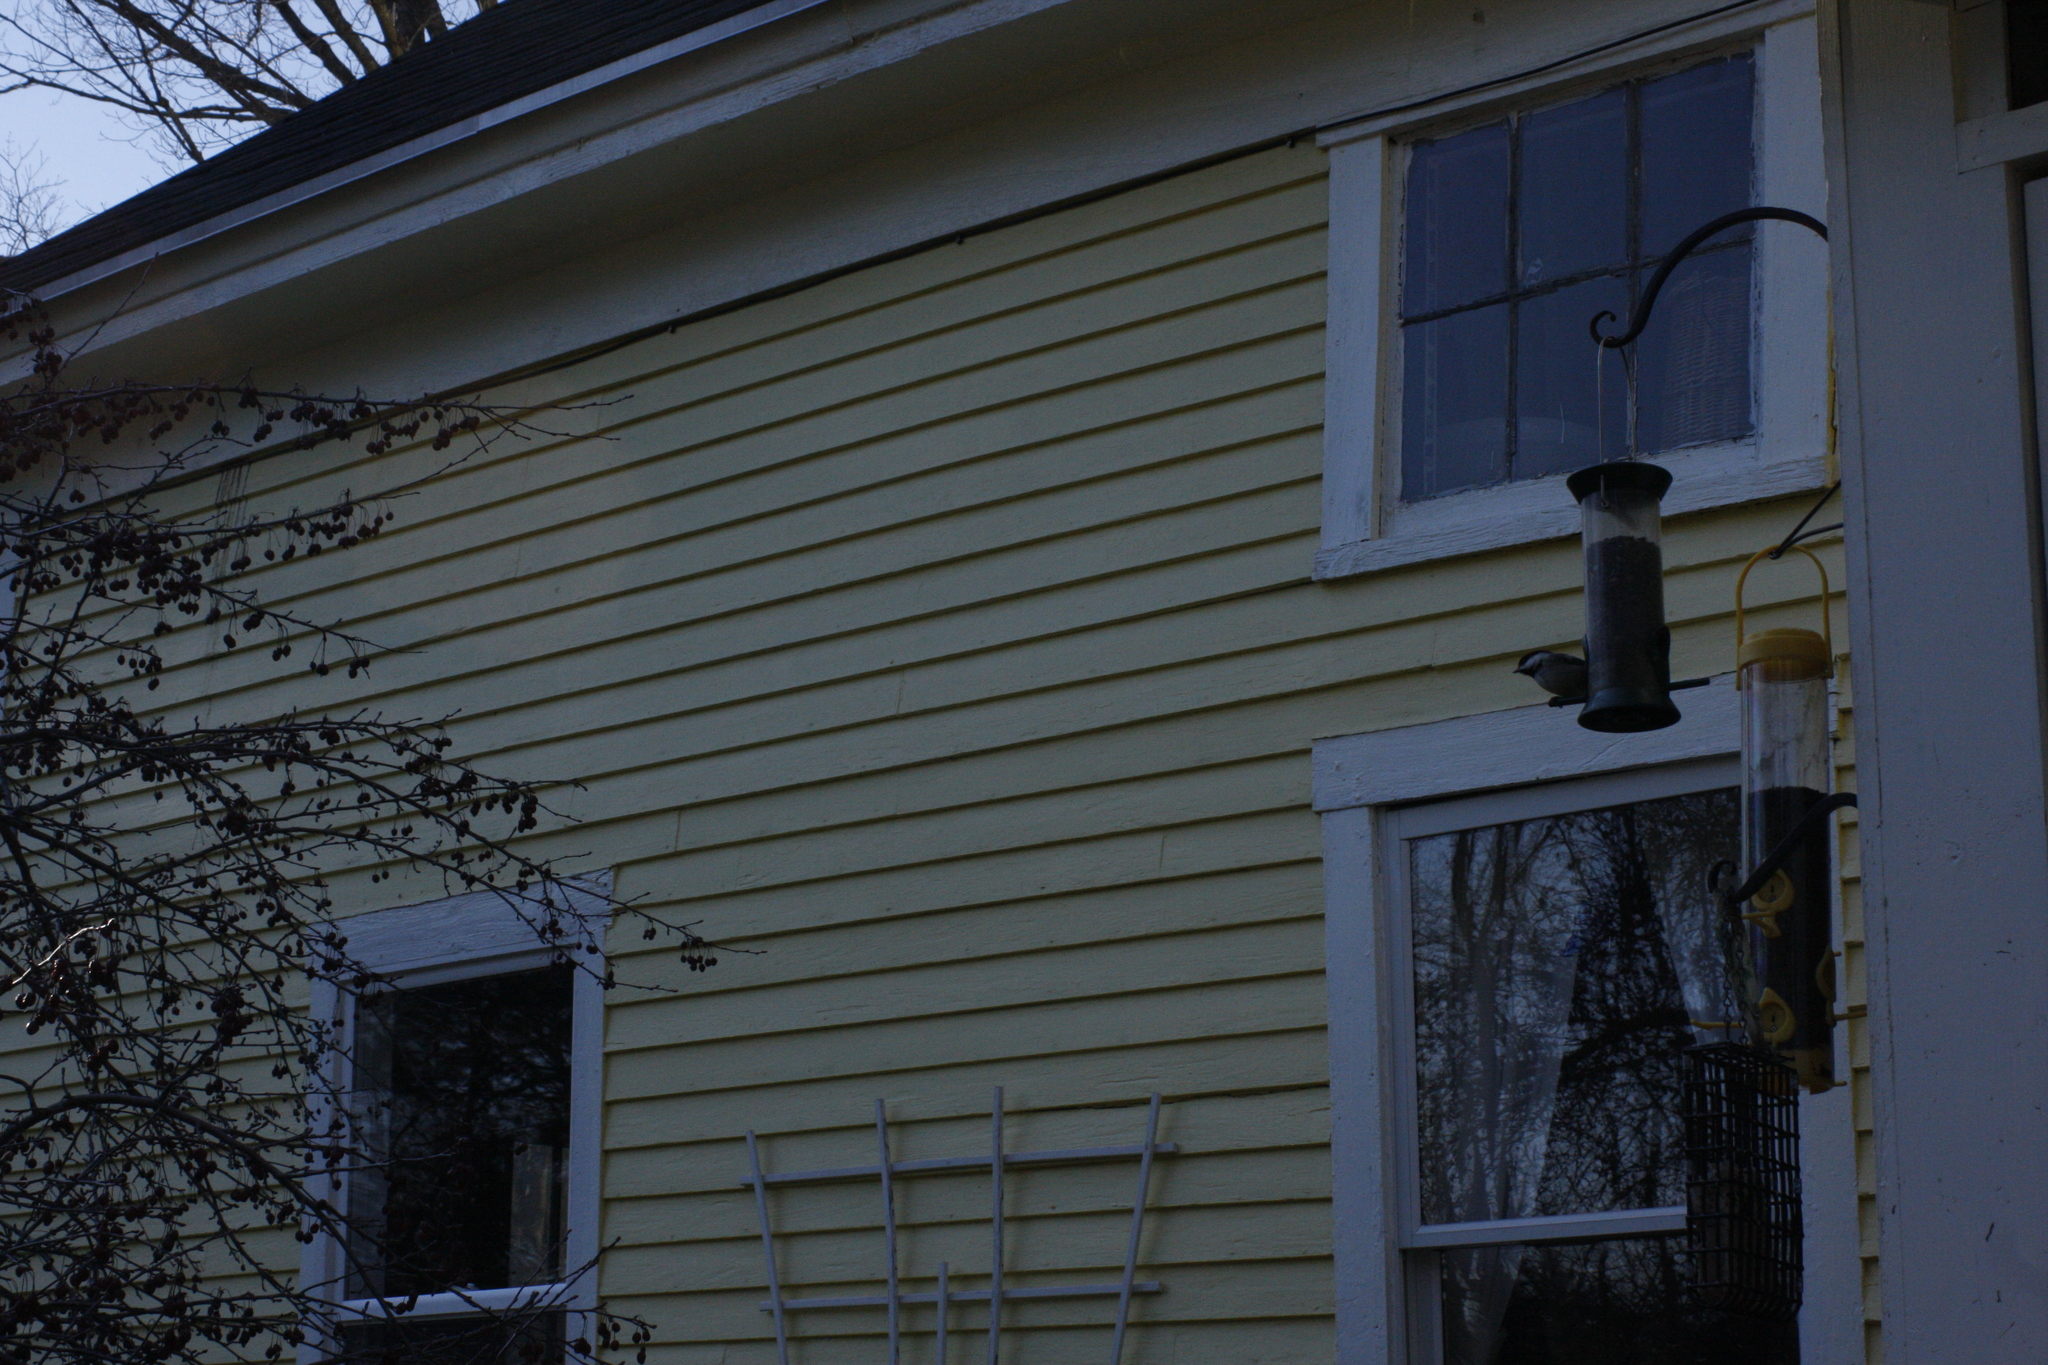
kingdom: Animalia
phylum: Chordata
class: Aves
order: Passeriformes
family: Paridae
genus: Poecile
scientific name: Poecile atricapillus
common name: Black-capped chickadee
